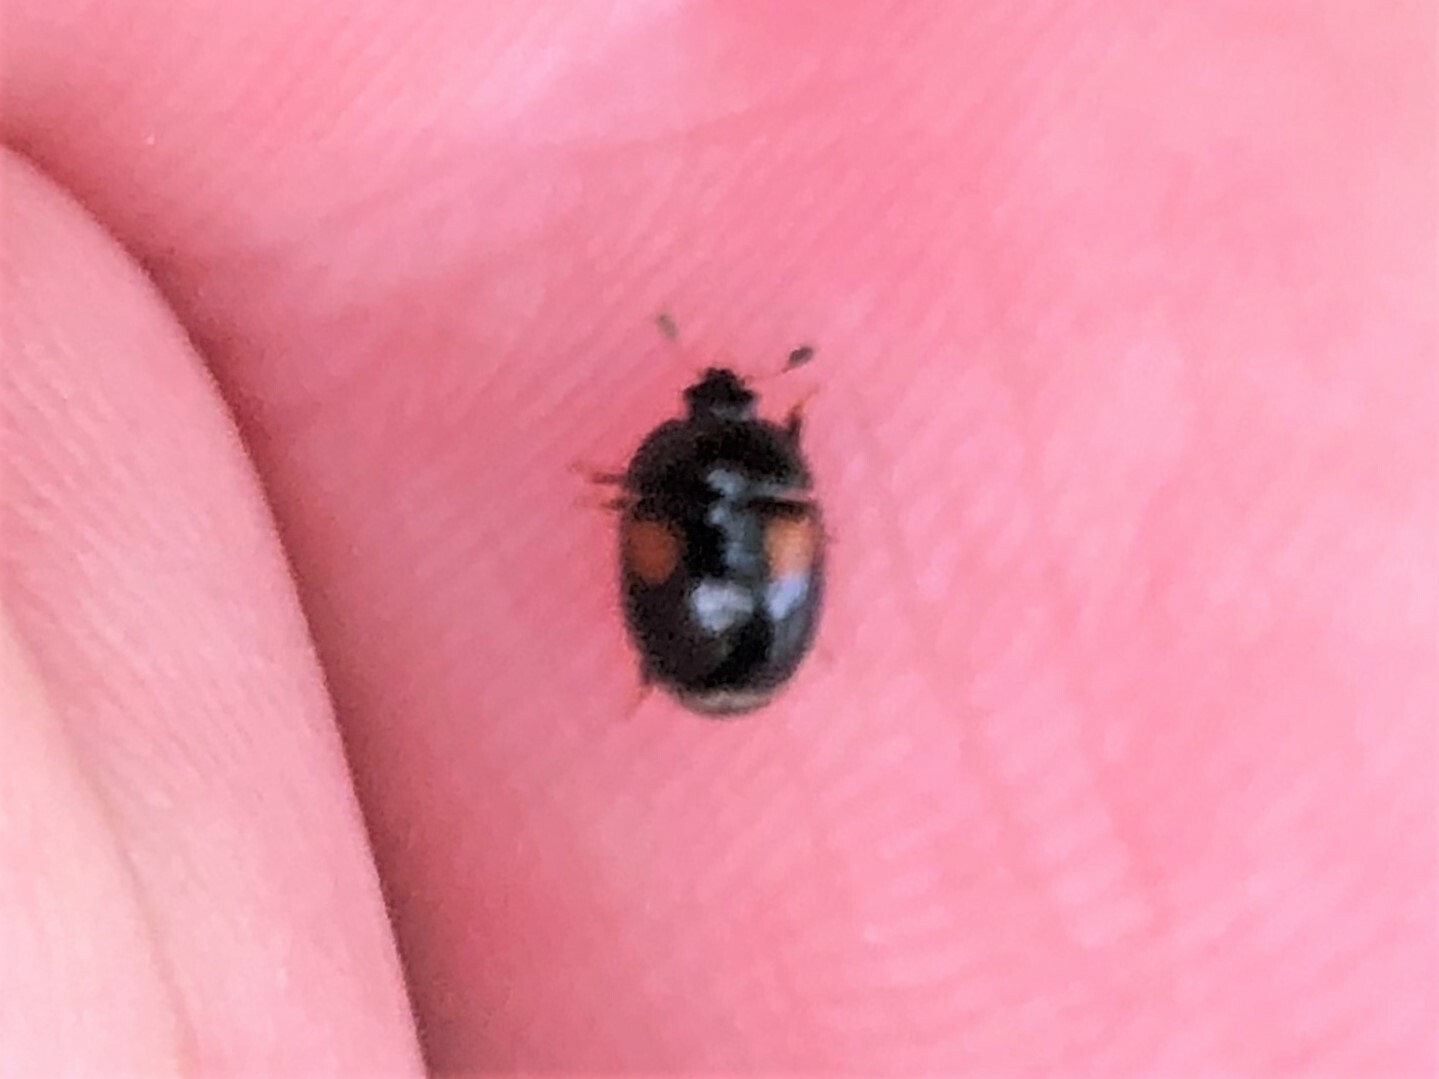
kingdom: Animalia
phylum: Arthropoda
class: Insecta
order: Coleoptera
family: Nitidulidae
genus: Cyllodes
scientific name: Cyllodes biplagiatus
